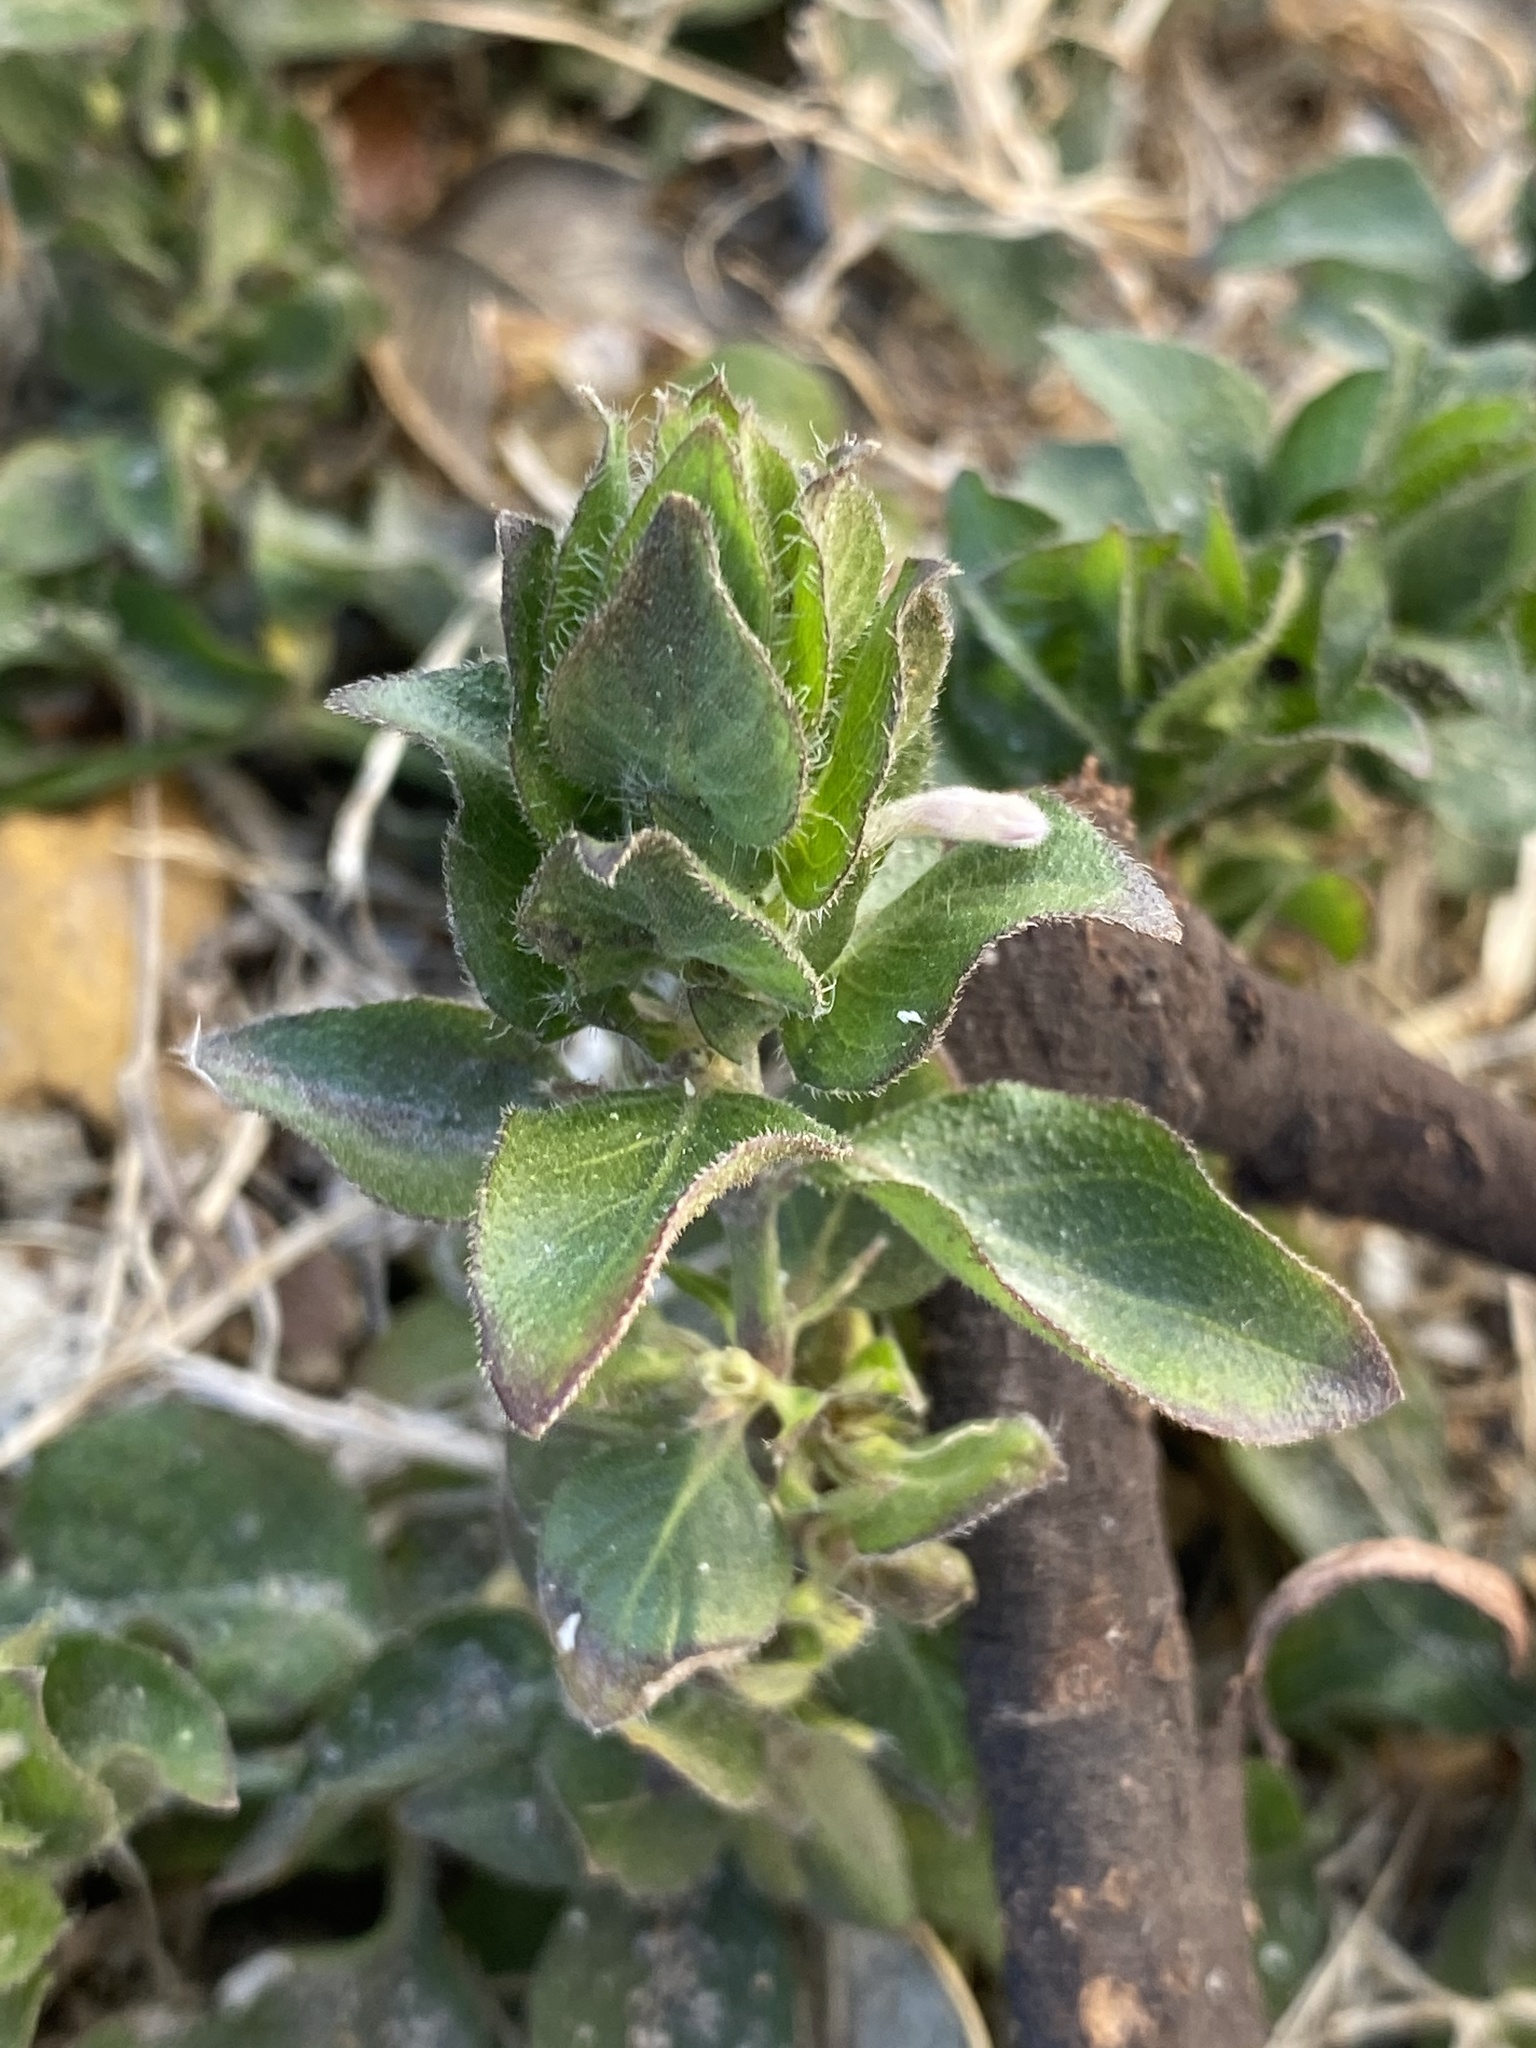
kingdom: Plantae
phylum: Tracheophyta
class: Magnoliopsida
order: Lamiales
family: Acanthaceae
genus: Ruellia
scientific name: Ruellia blechum
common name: Browne's blechum
